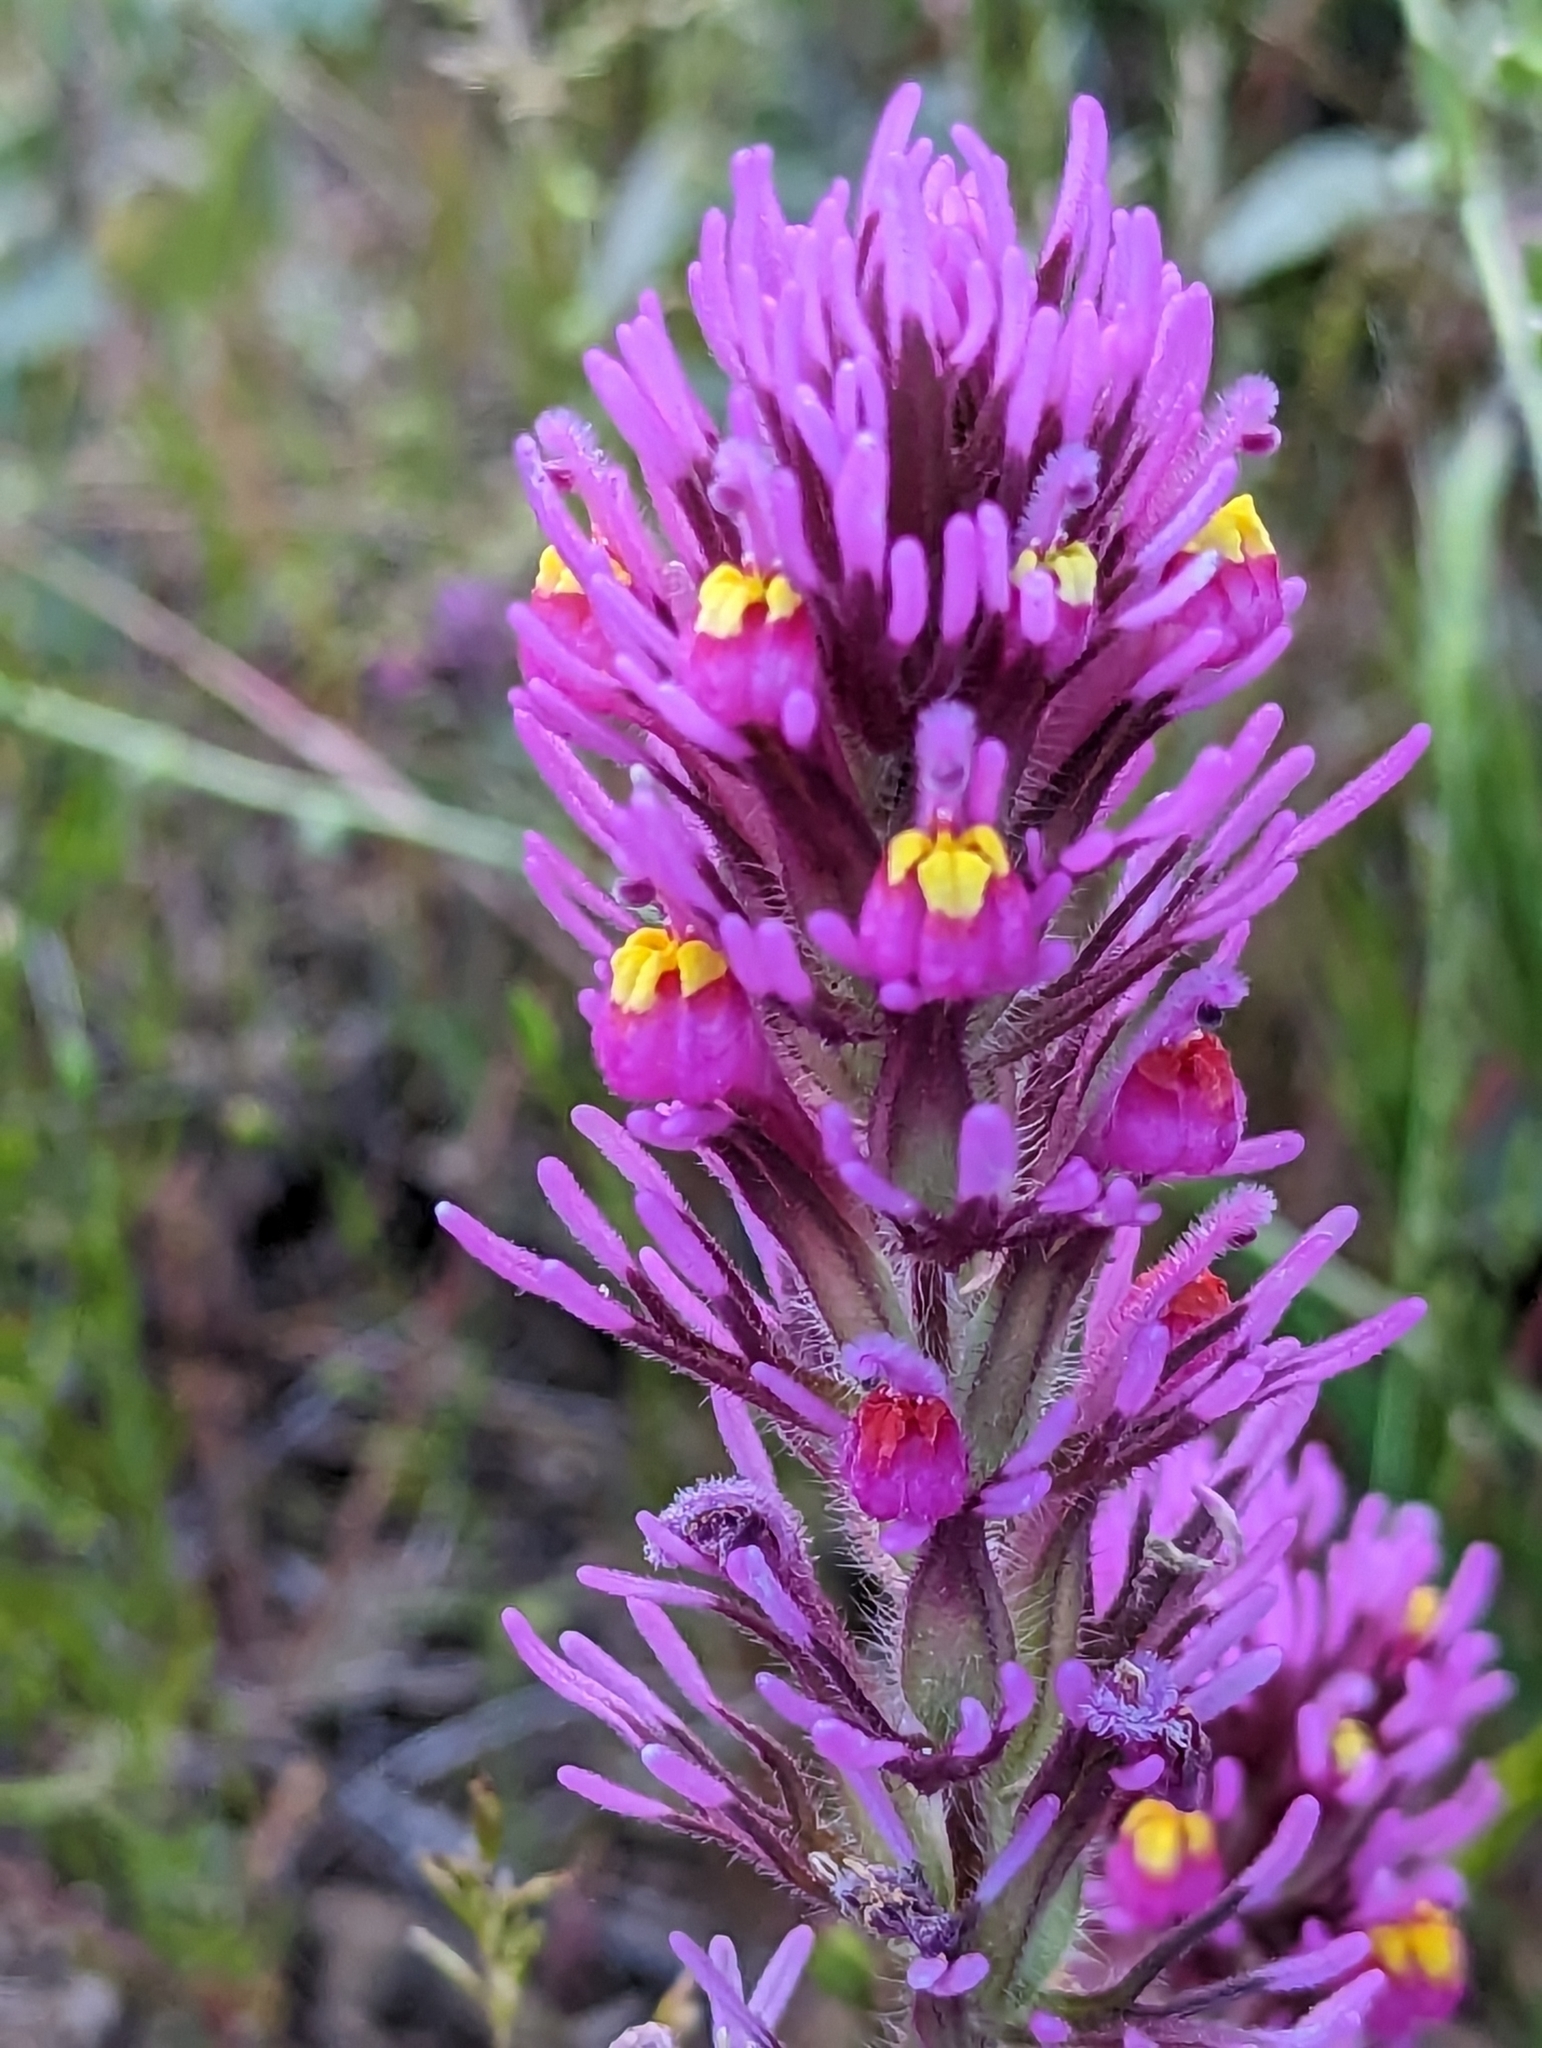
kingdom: Plantae
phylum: Tracheophyta
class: Magnoliopsida
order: Lamiales
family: Orobanchaceae
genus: Castilleja
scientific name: Castilleja exserta
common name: Purple owl-clover
